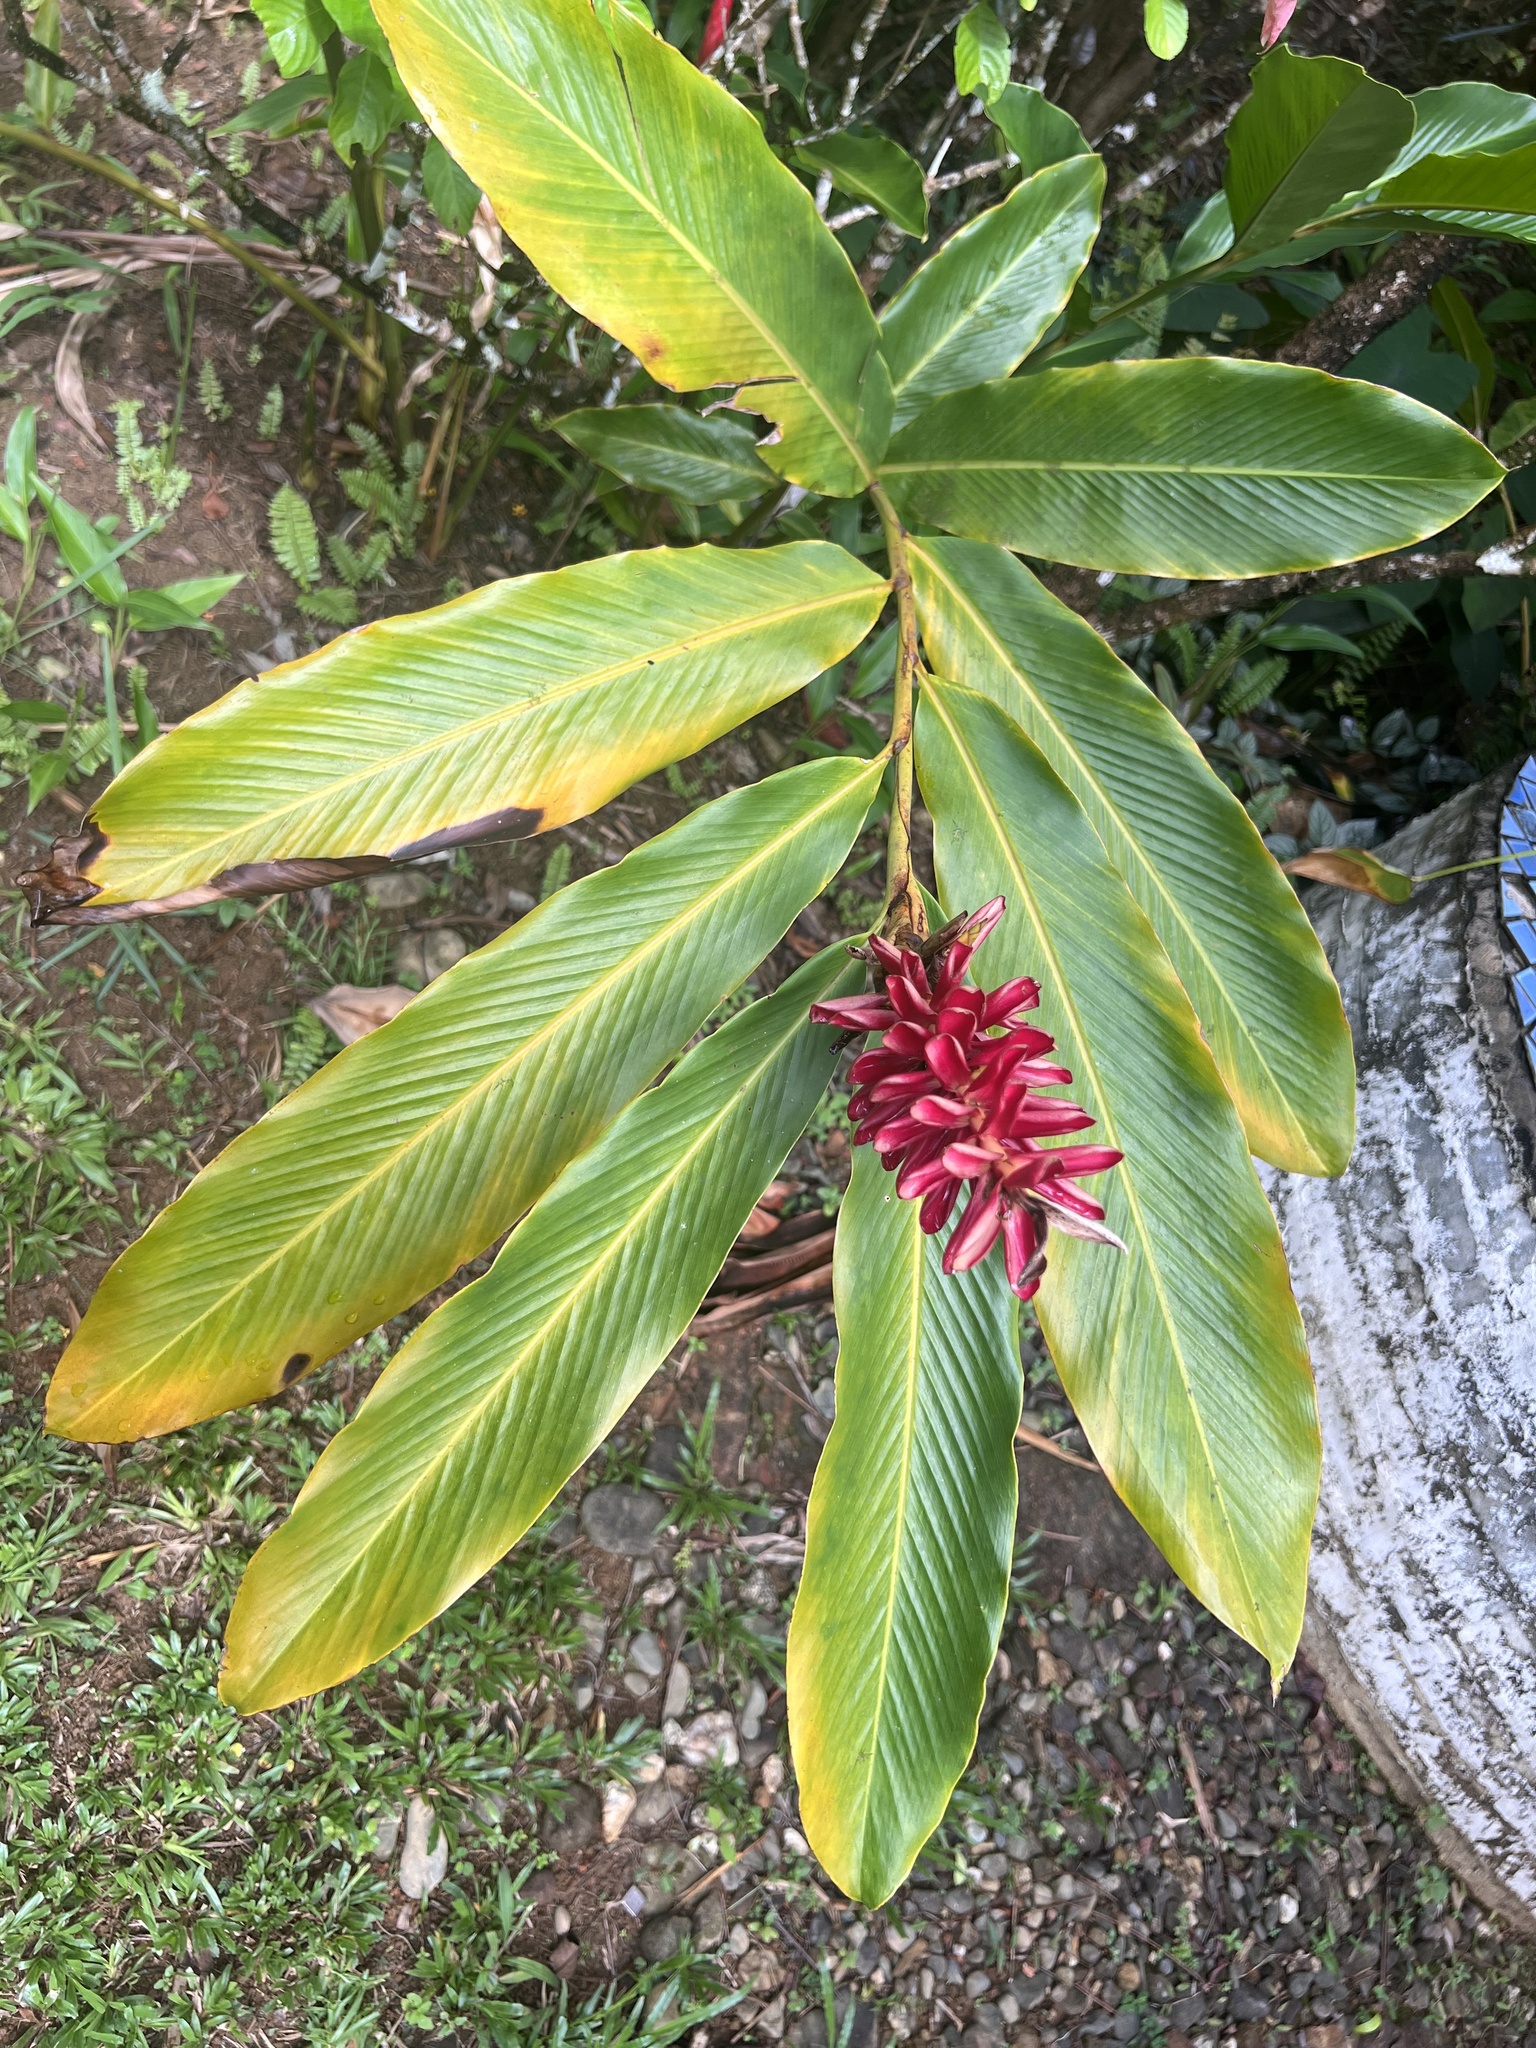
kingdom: Plantae
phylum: Tracheophyta
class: Liliopsida
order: Zingiberales
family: Zingiberaceae
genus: Alpinia
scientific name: Alpinia purpurata
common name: Red ginger
